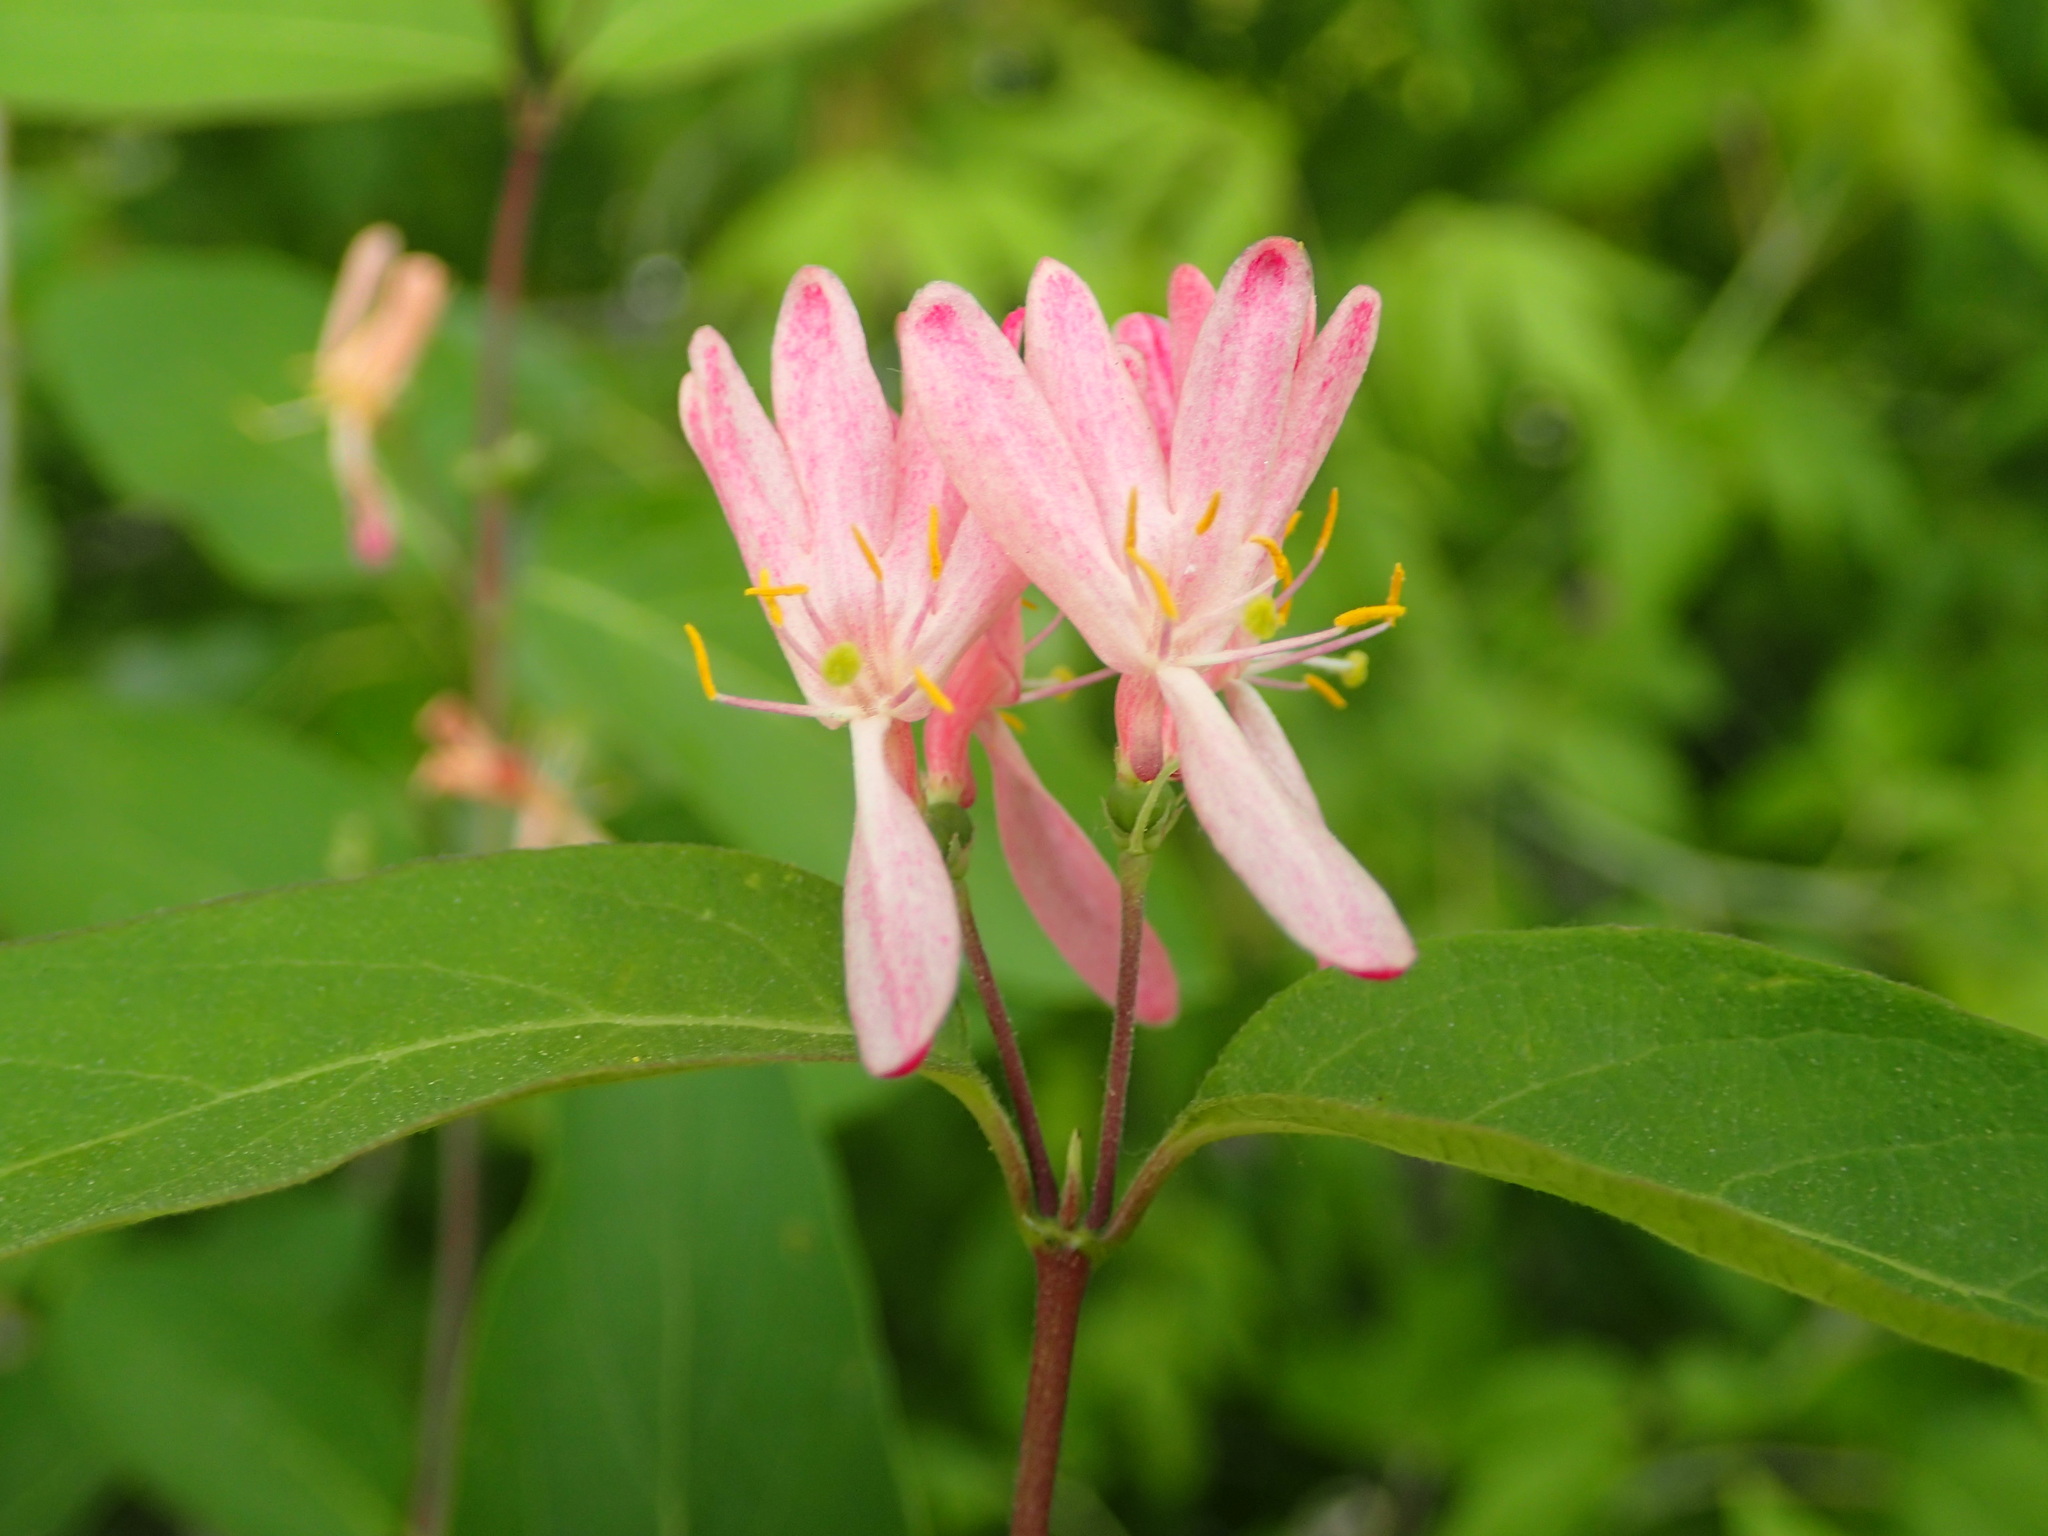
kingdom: Plantae
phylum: Tracheophyta
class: Magnoliopsida
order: Dipsacales
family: Caprifoliaceae
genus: Lonicera
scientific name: Lonicera tatarica
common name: Tatarian honeysuckle
